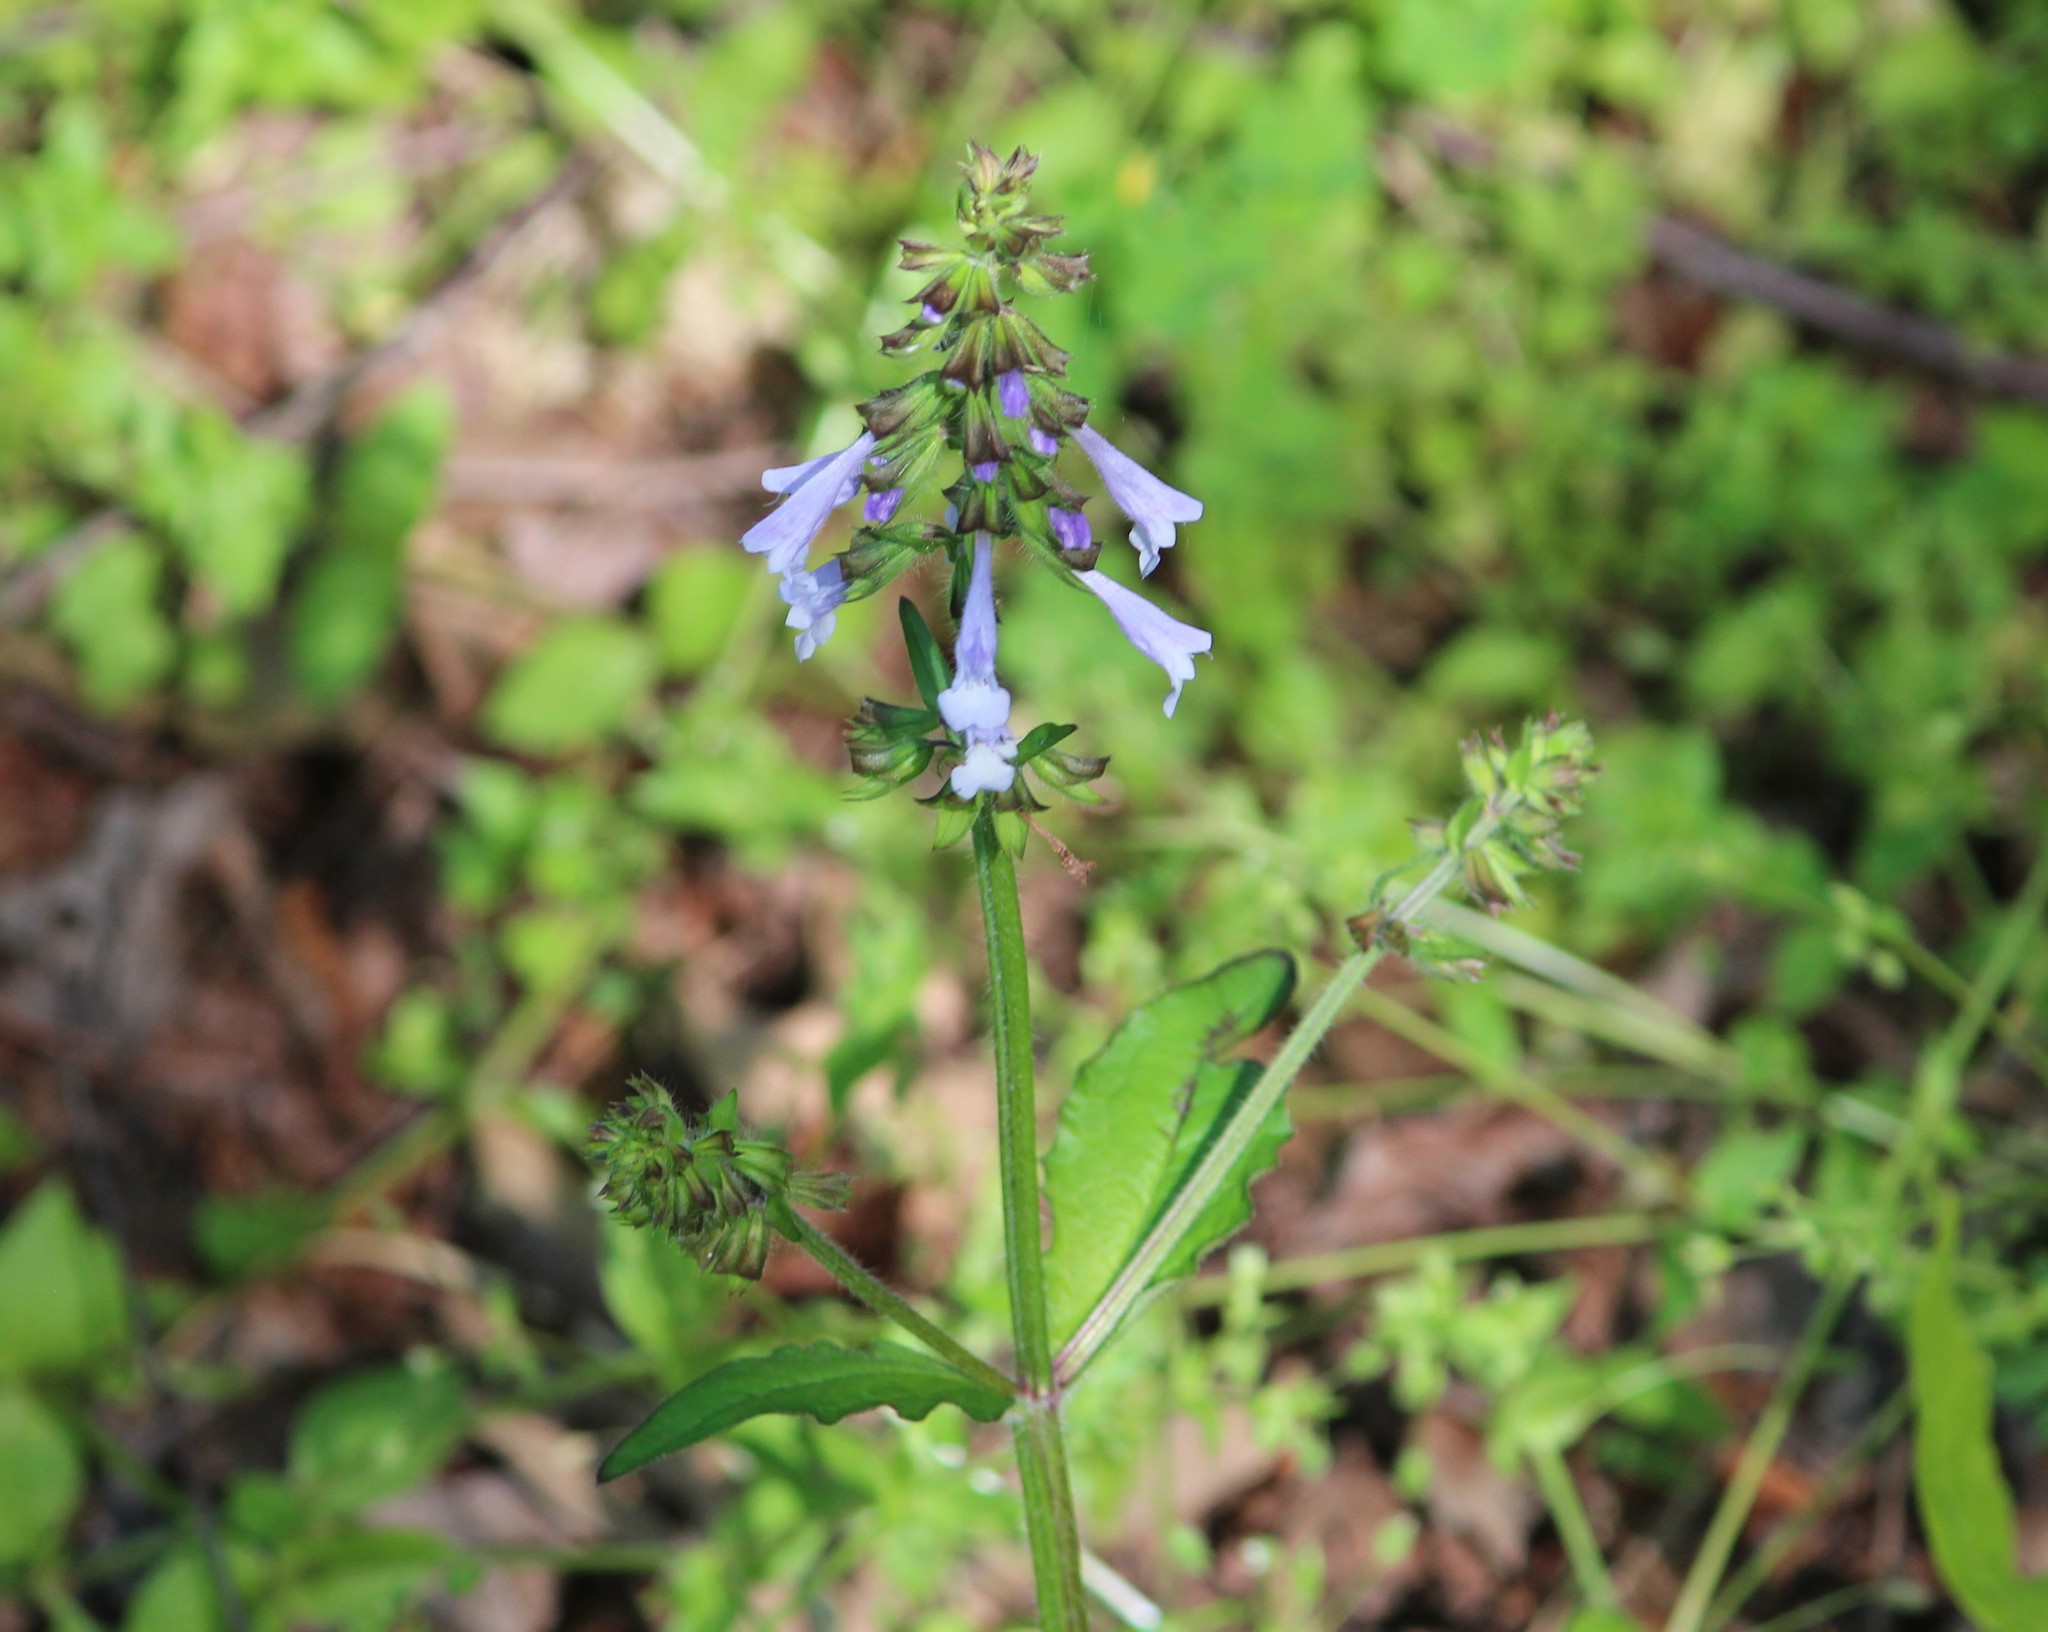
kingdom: Plantae
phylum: Tracheophyta
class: Magnoliopsida
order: Lamiales
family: Lamiaceae
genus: Salvia
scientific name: Salvia lyrata
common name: Cancerweed
